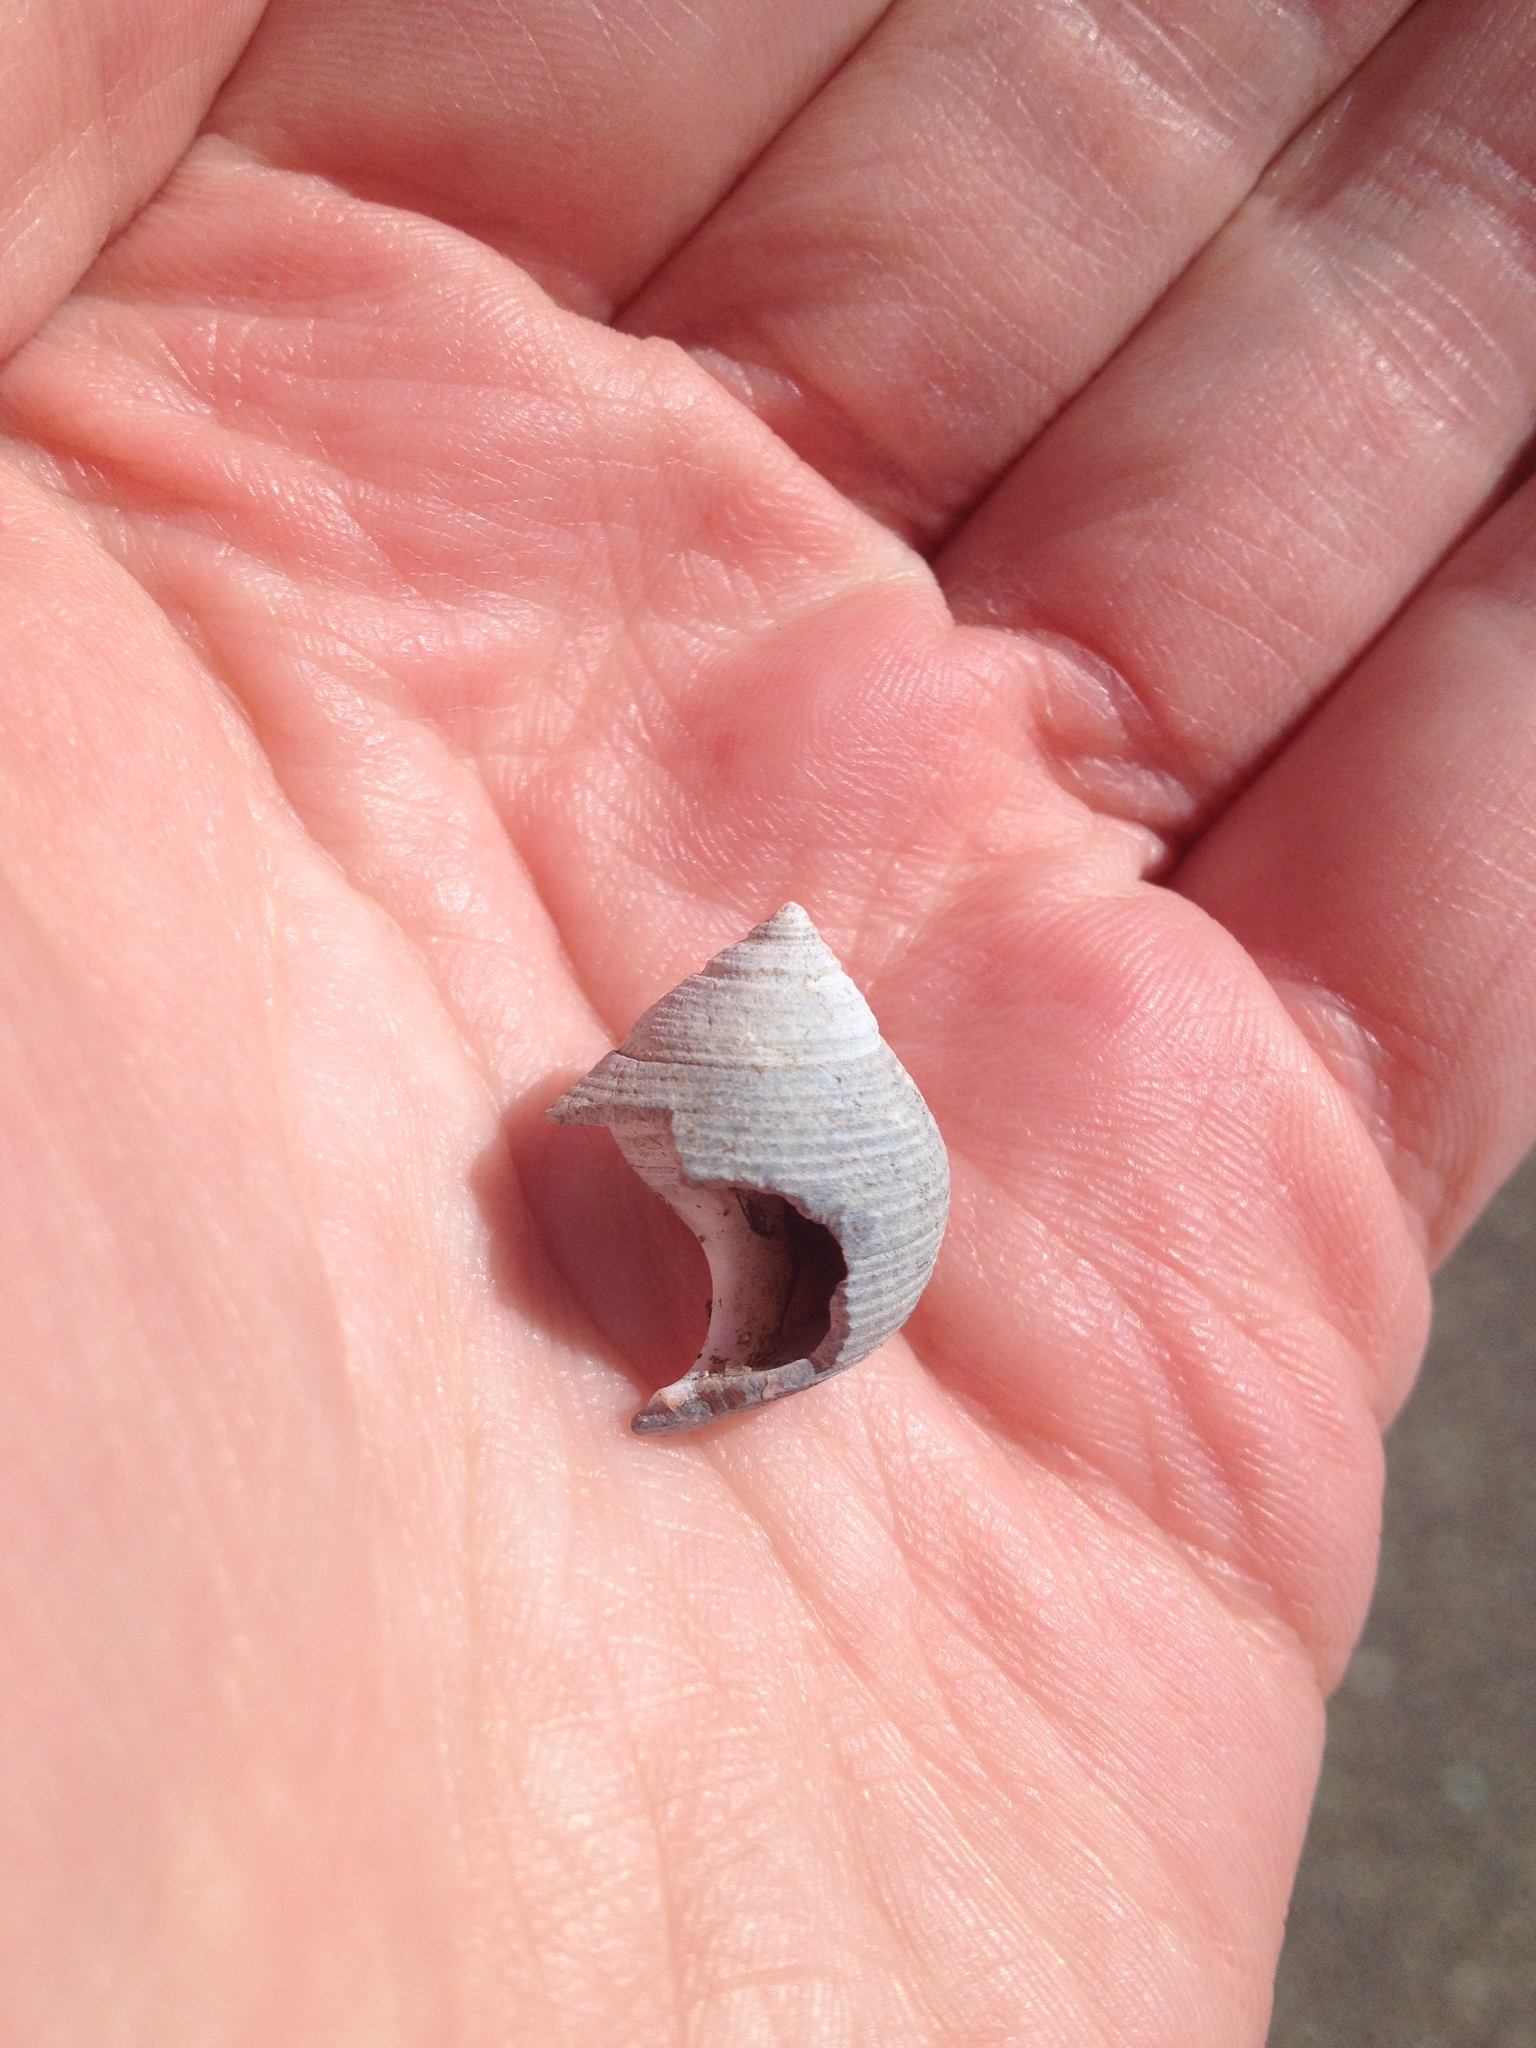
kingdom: Animalia
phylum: Mollusca
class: Gastropoda
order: Littorinimorpha
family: Littorinidae
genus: Littorina
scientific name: Littorina littorea
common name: Common periwinkle
